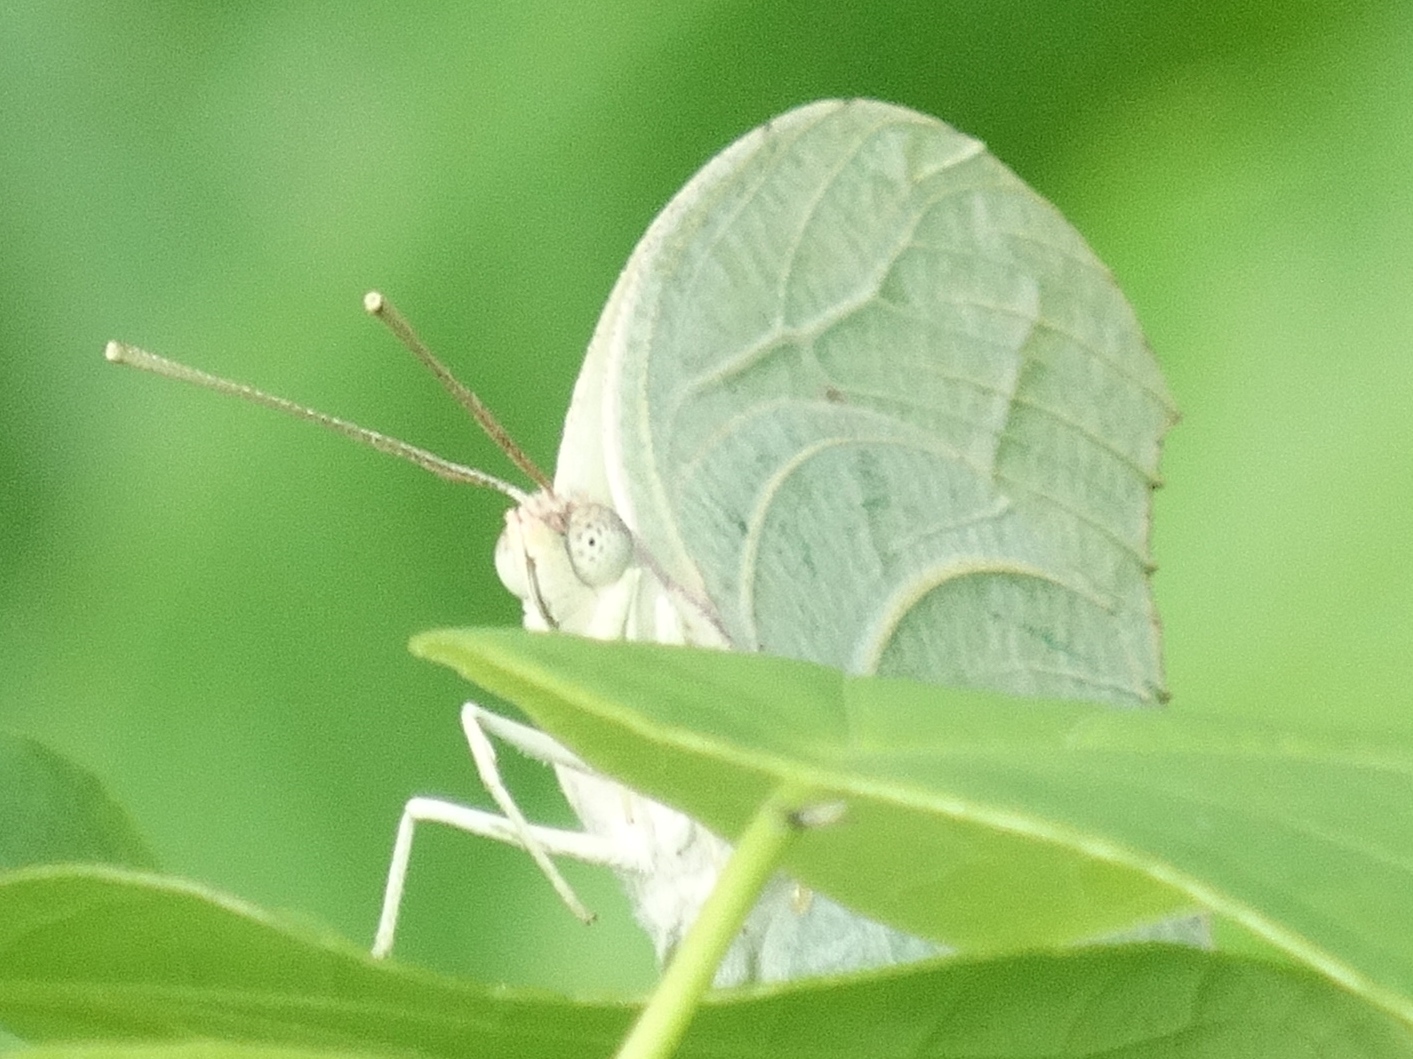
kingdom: Animalia
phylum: Arthropoda
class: Insecta
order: Lepidoptera
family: Pieridae
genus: Anteos
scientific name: Anteos clorinde
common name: White angled sulphur
